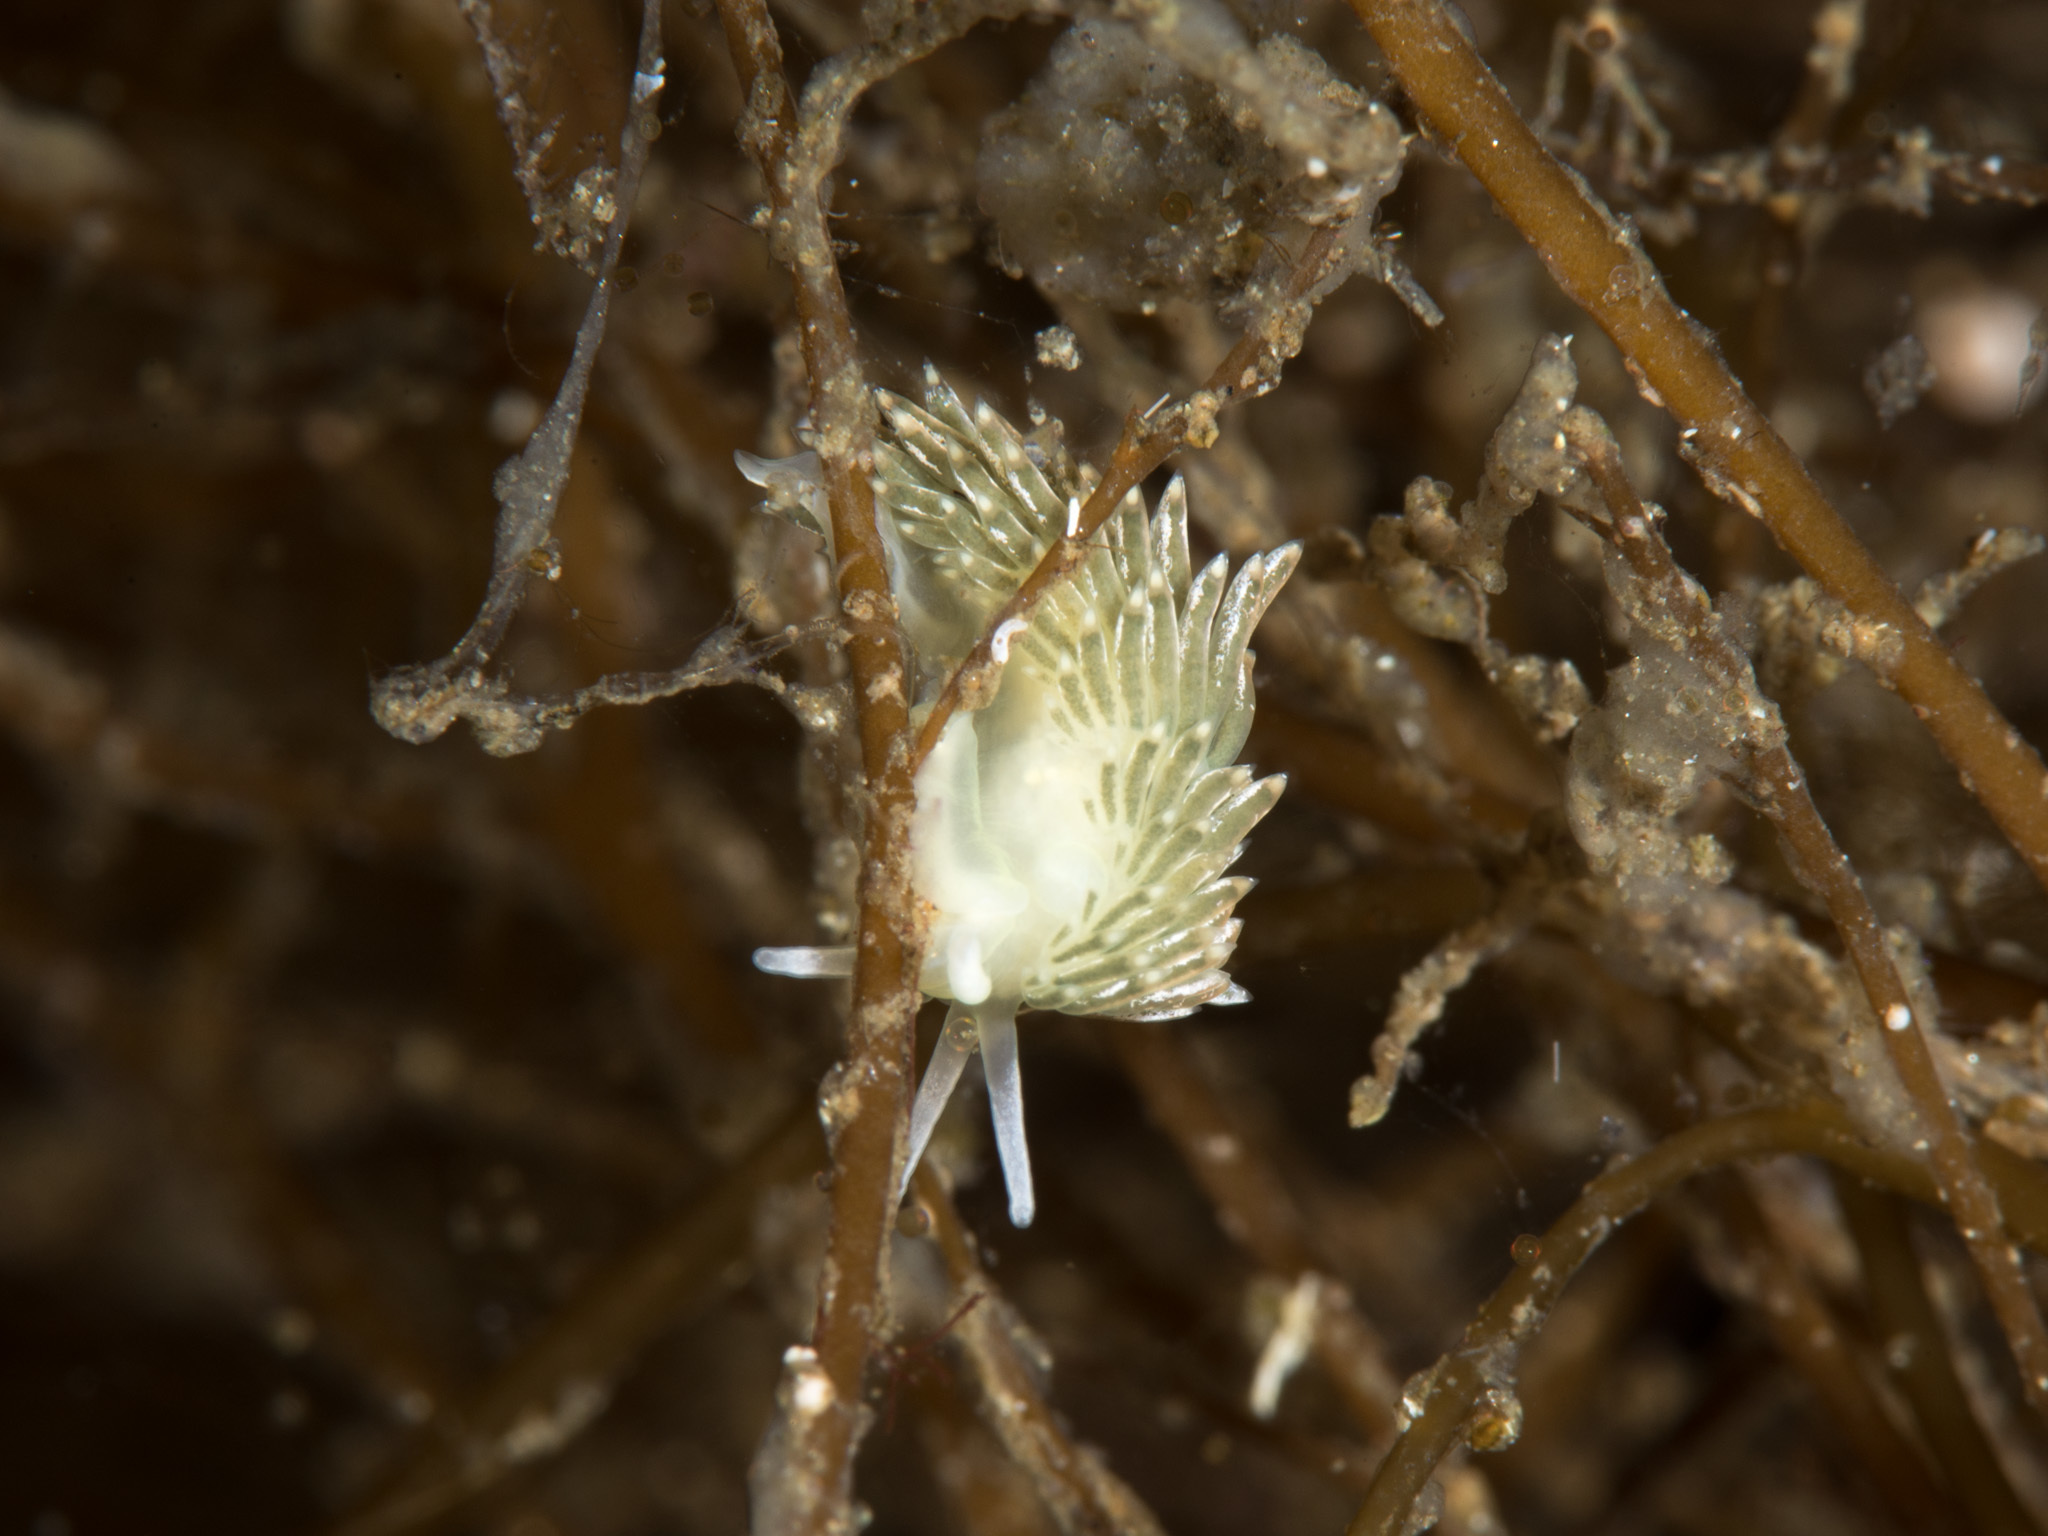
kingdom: Animalia
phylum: Mollusca
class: Gastropoda
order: Nudibranchia
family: Trinchesiidae
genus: Diaphoreolis
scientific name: Diaphoreolis viridis
